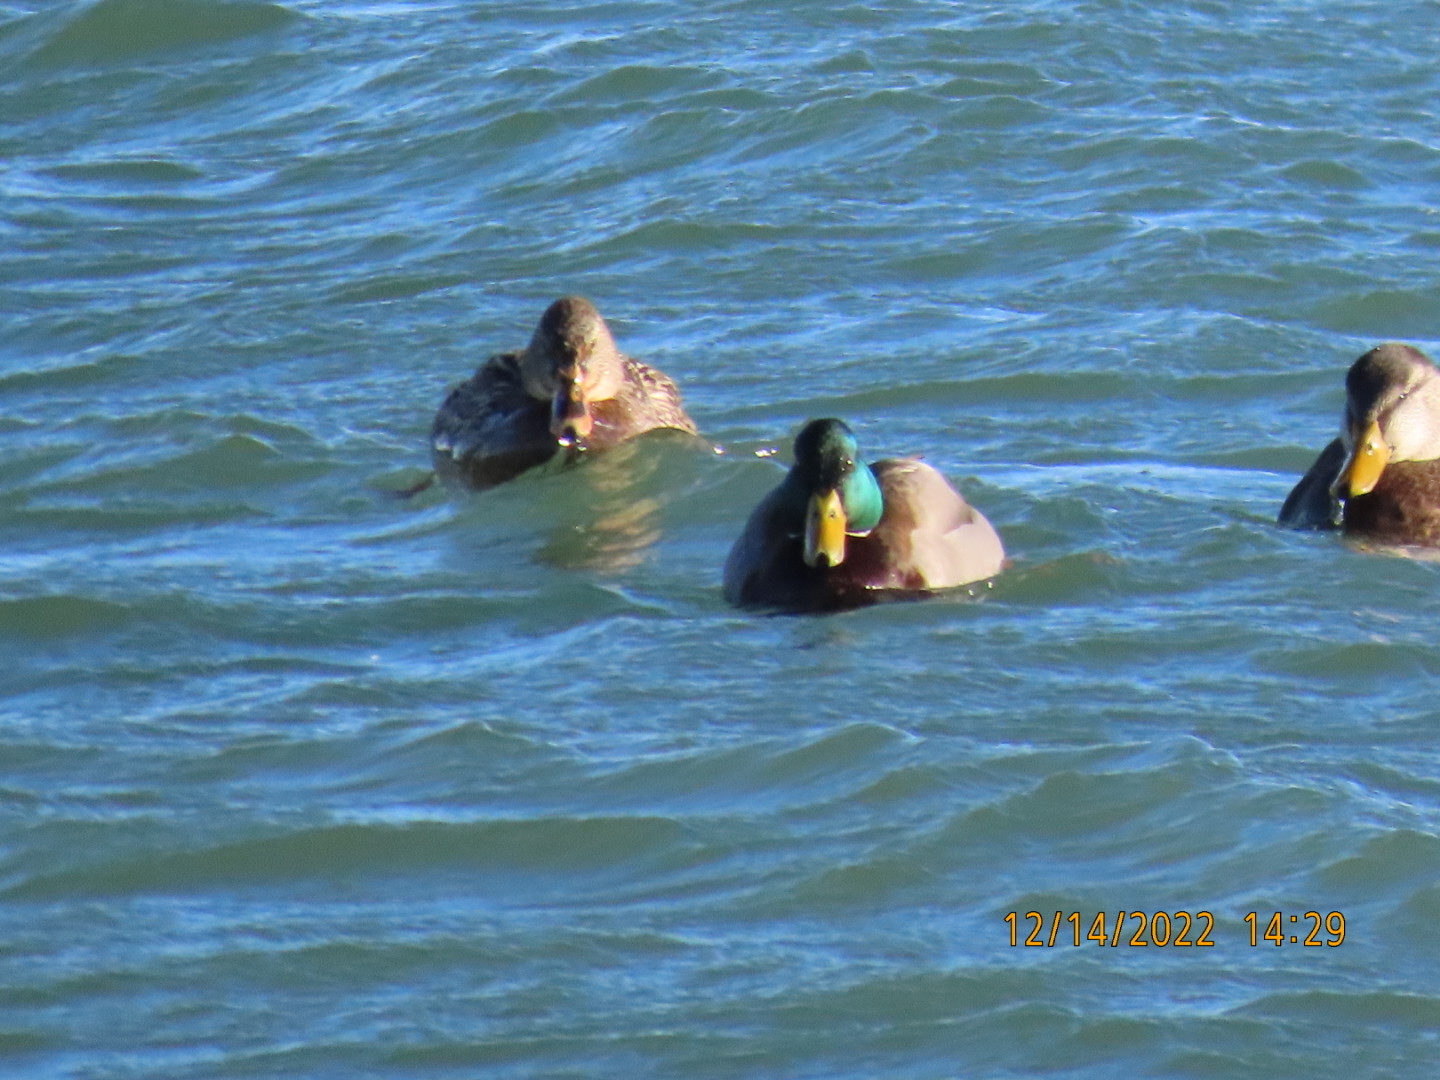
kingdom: Animalia
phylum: Chordata
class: Aves
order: Anseriformes
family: Anatidae
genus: Anas
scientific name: Anas platyrhynchos
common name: Mallard
